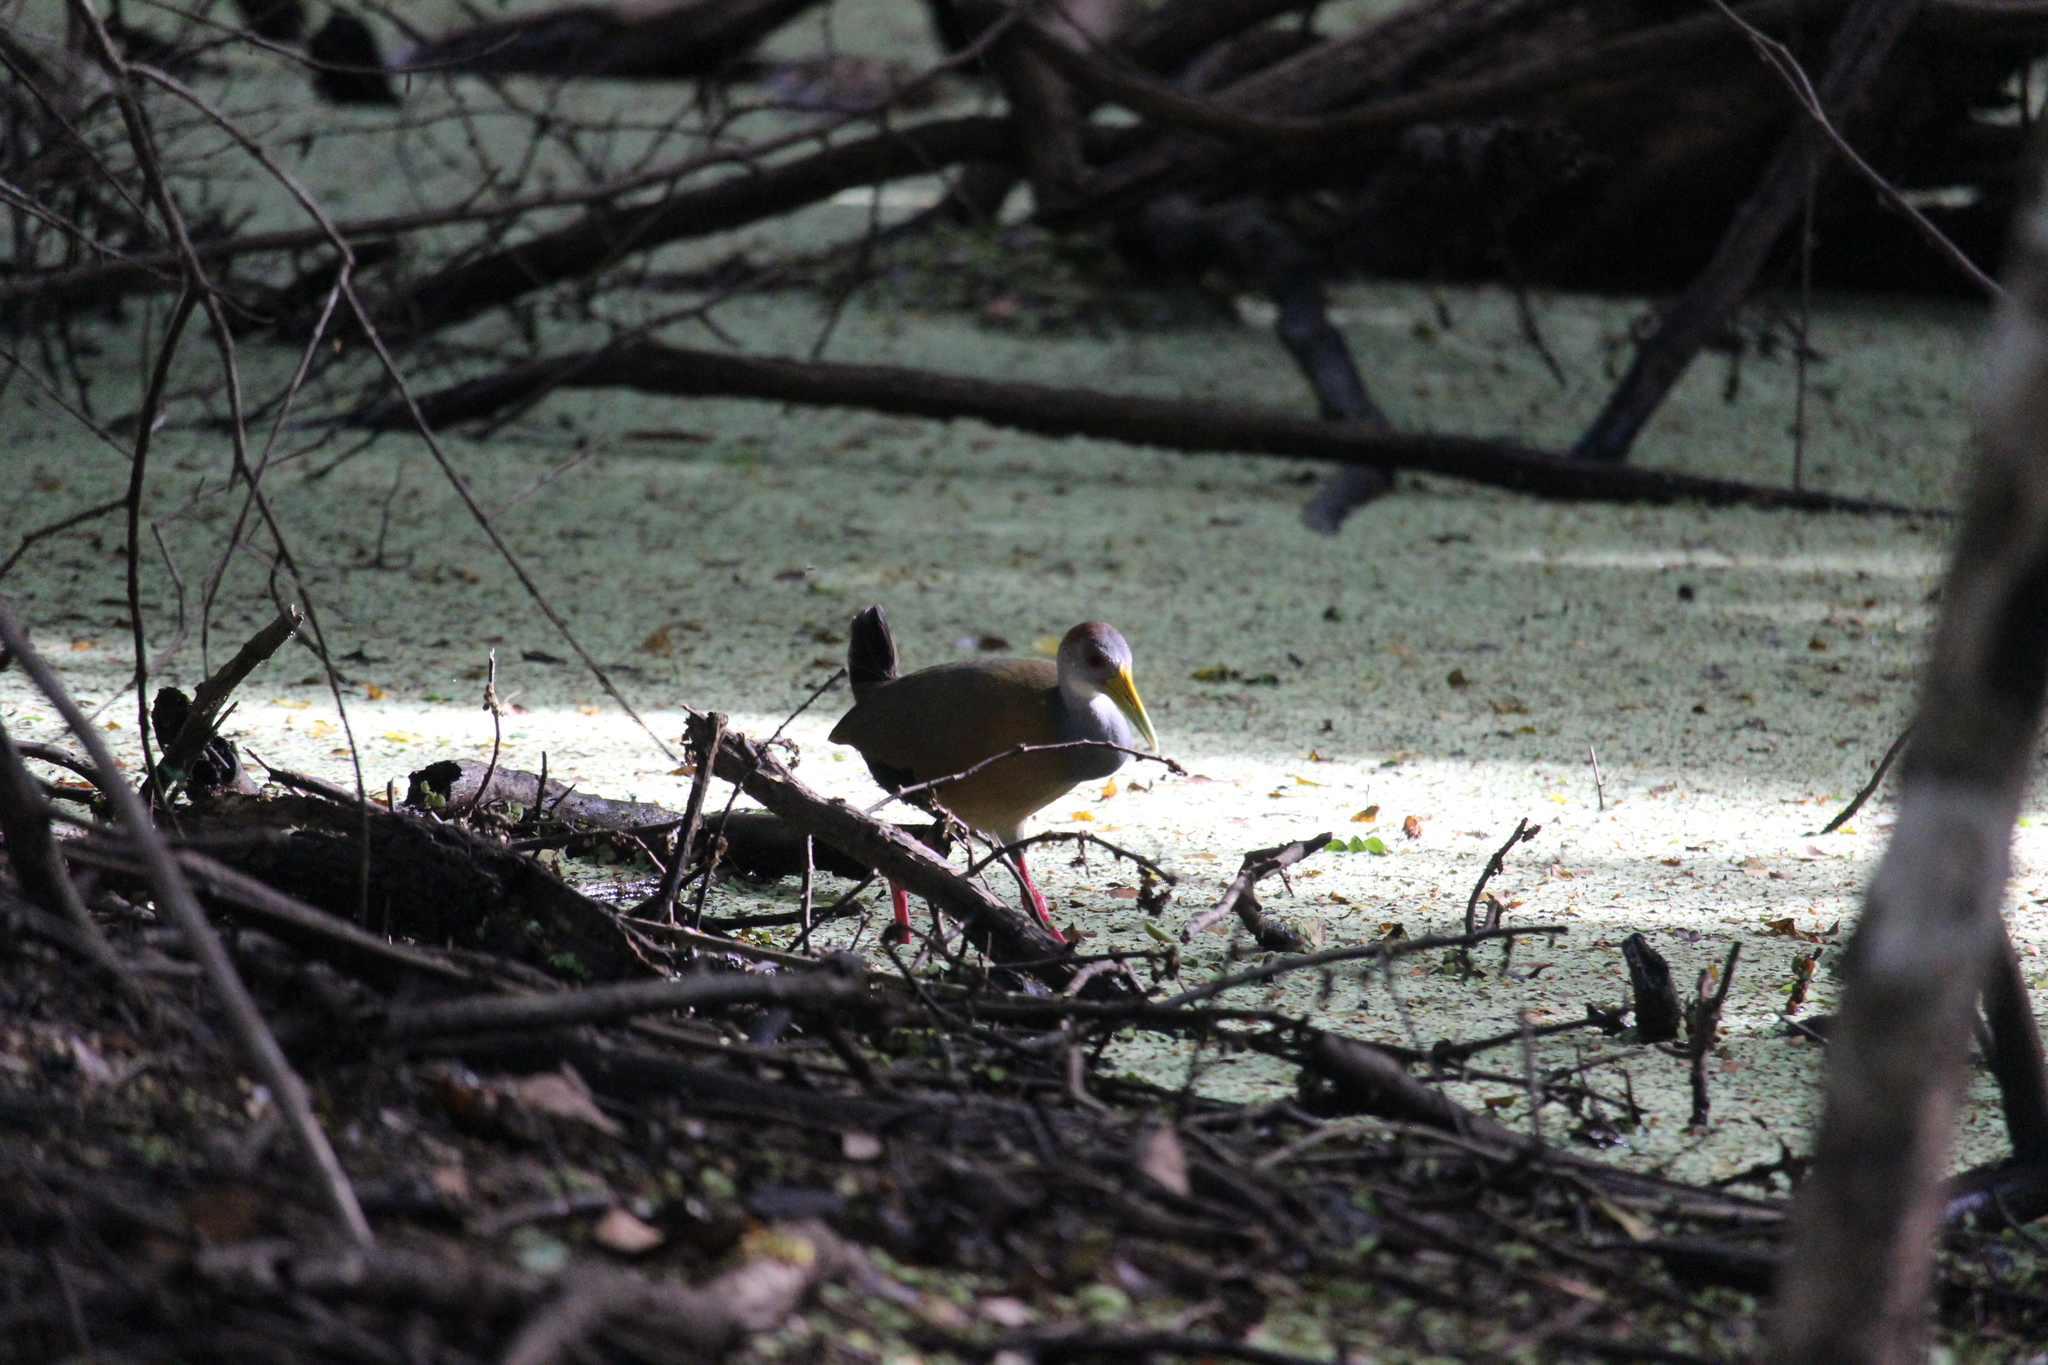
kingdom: Animalia
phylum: Chordata
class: Aves
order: Gruiformes
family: Rallidae
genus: Aramides
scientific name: Aramides albiventris
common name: Russet-naped wood-rail
